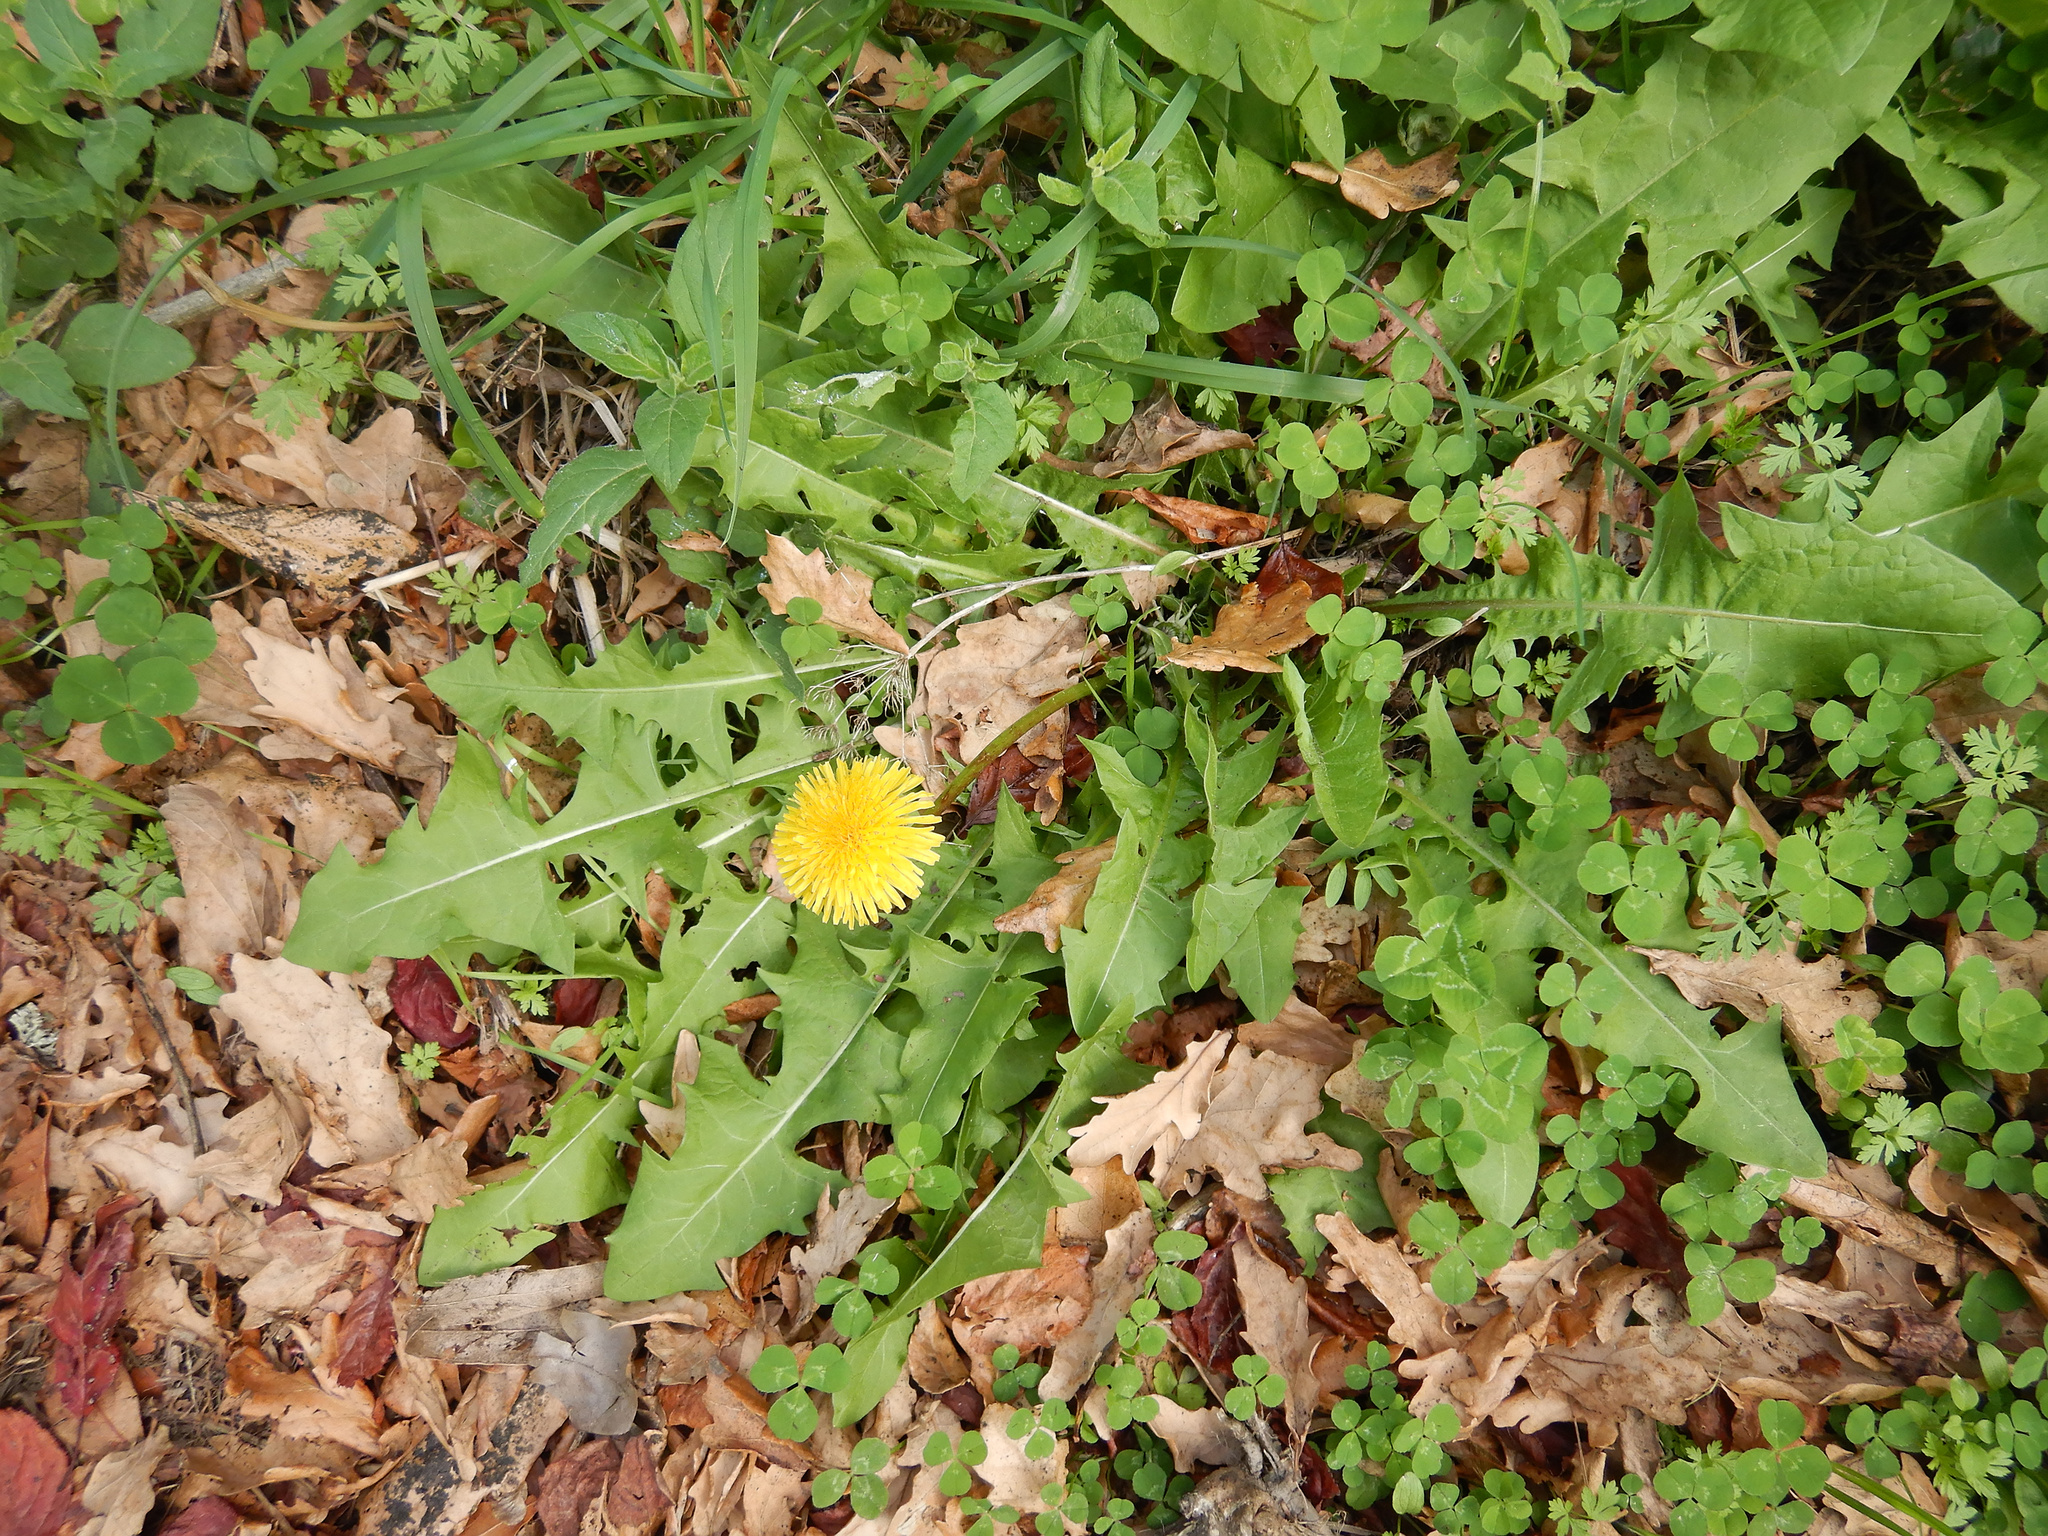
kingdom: Plantae
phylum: Tracheophyta
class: Magnoliopsida
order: Asterales
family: Asteraceae
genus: Taraxacum
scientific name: Taraxacum officinale
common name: Common dandelion
